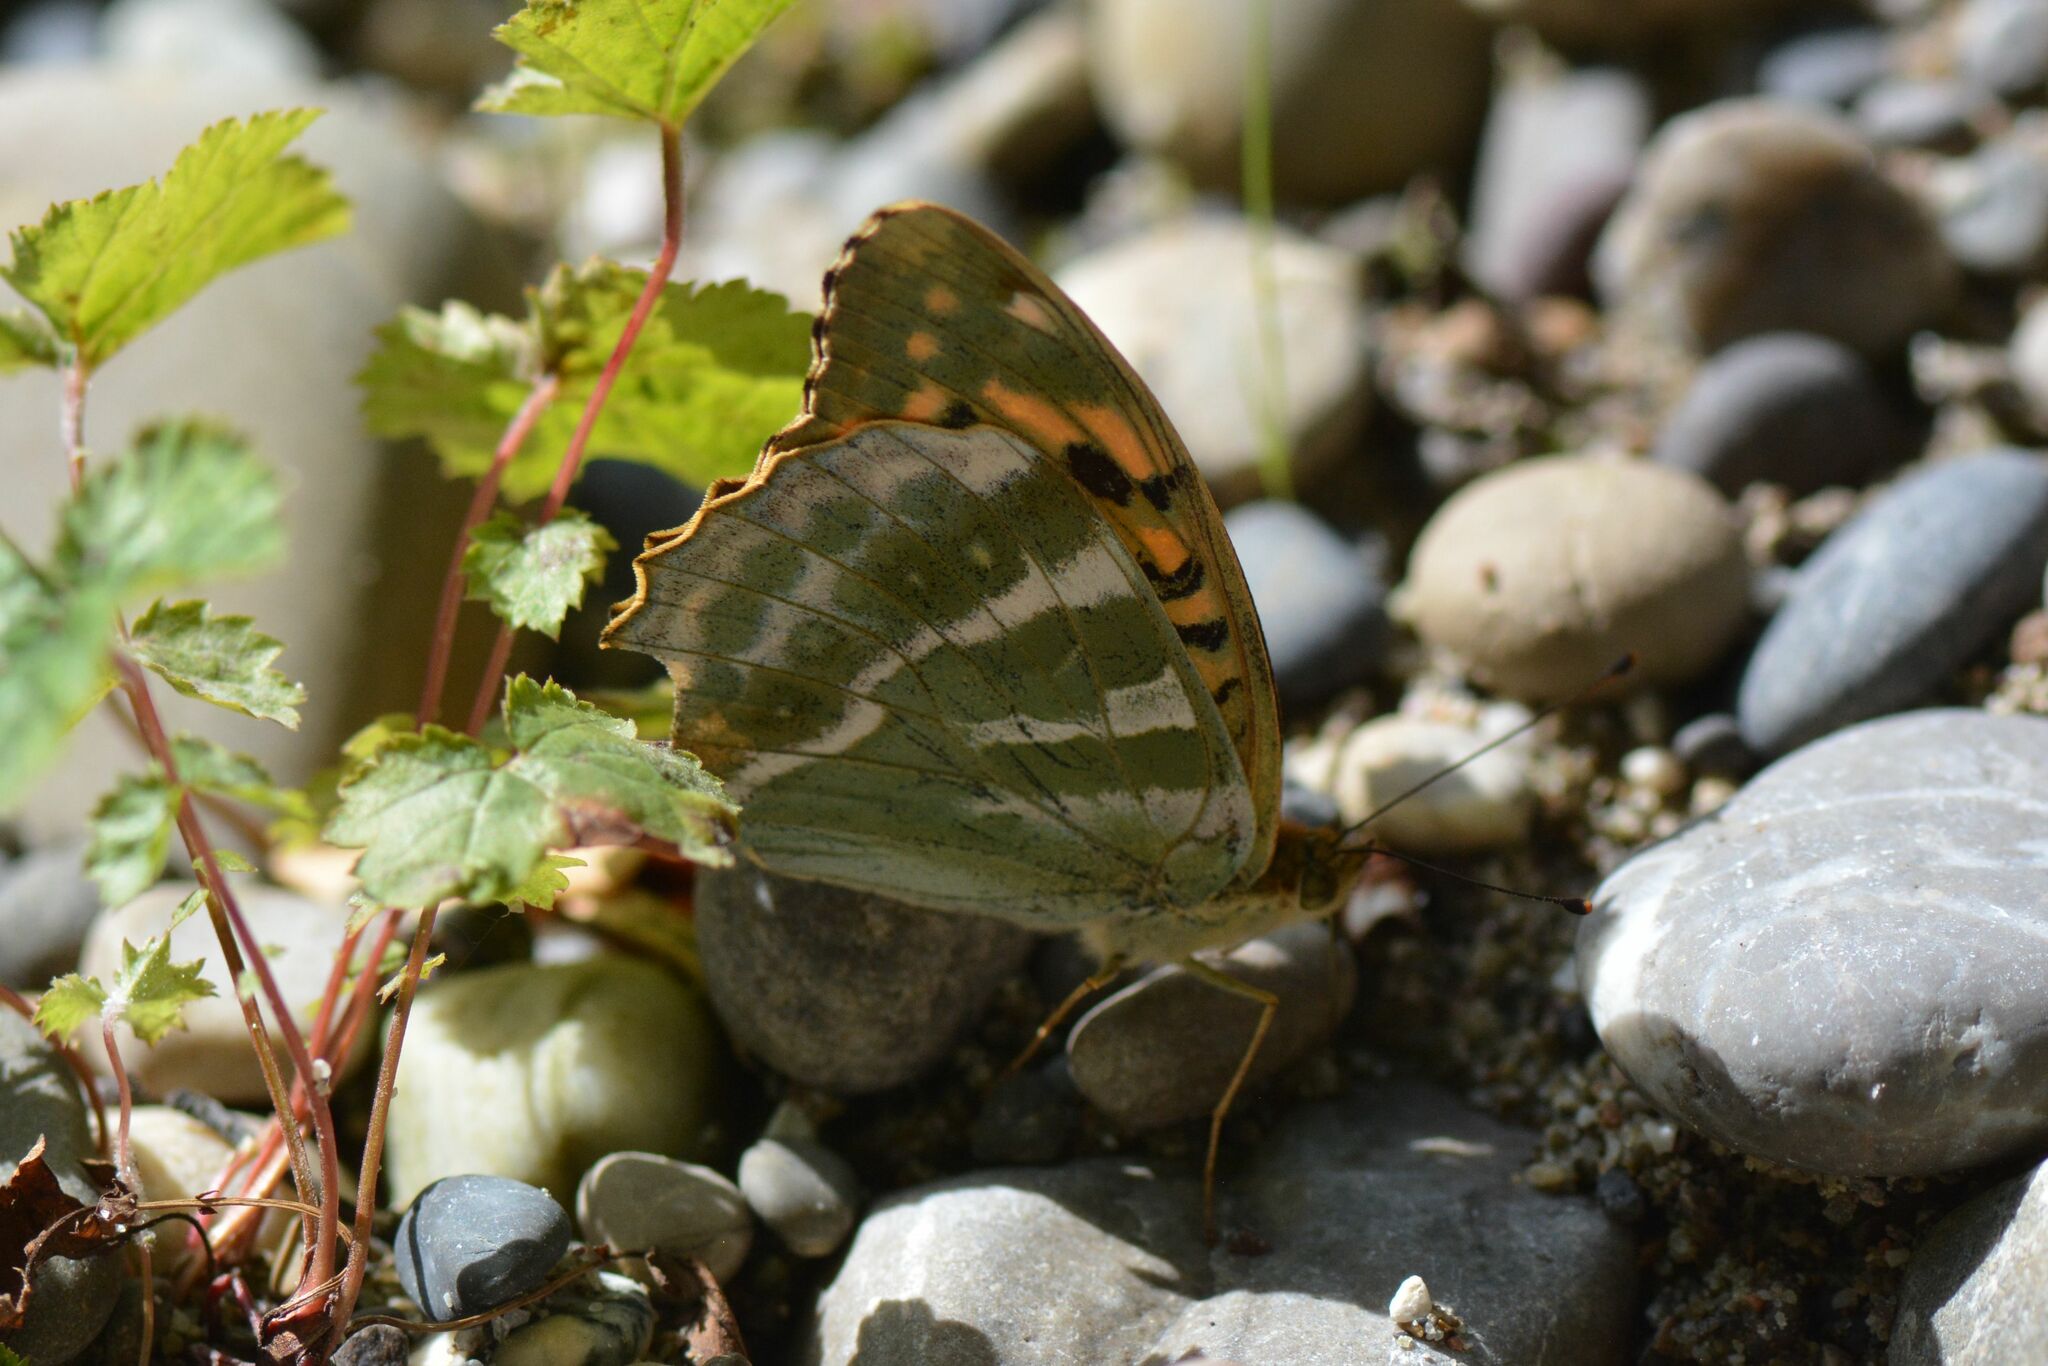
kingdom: Animalia
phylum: Arthropoda
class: Insecta
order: Lepidoptera
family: Nymphalidae
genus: Argynnis
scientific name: Argynnis paphia
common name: Silver-washed fritillary
